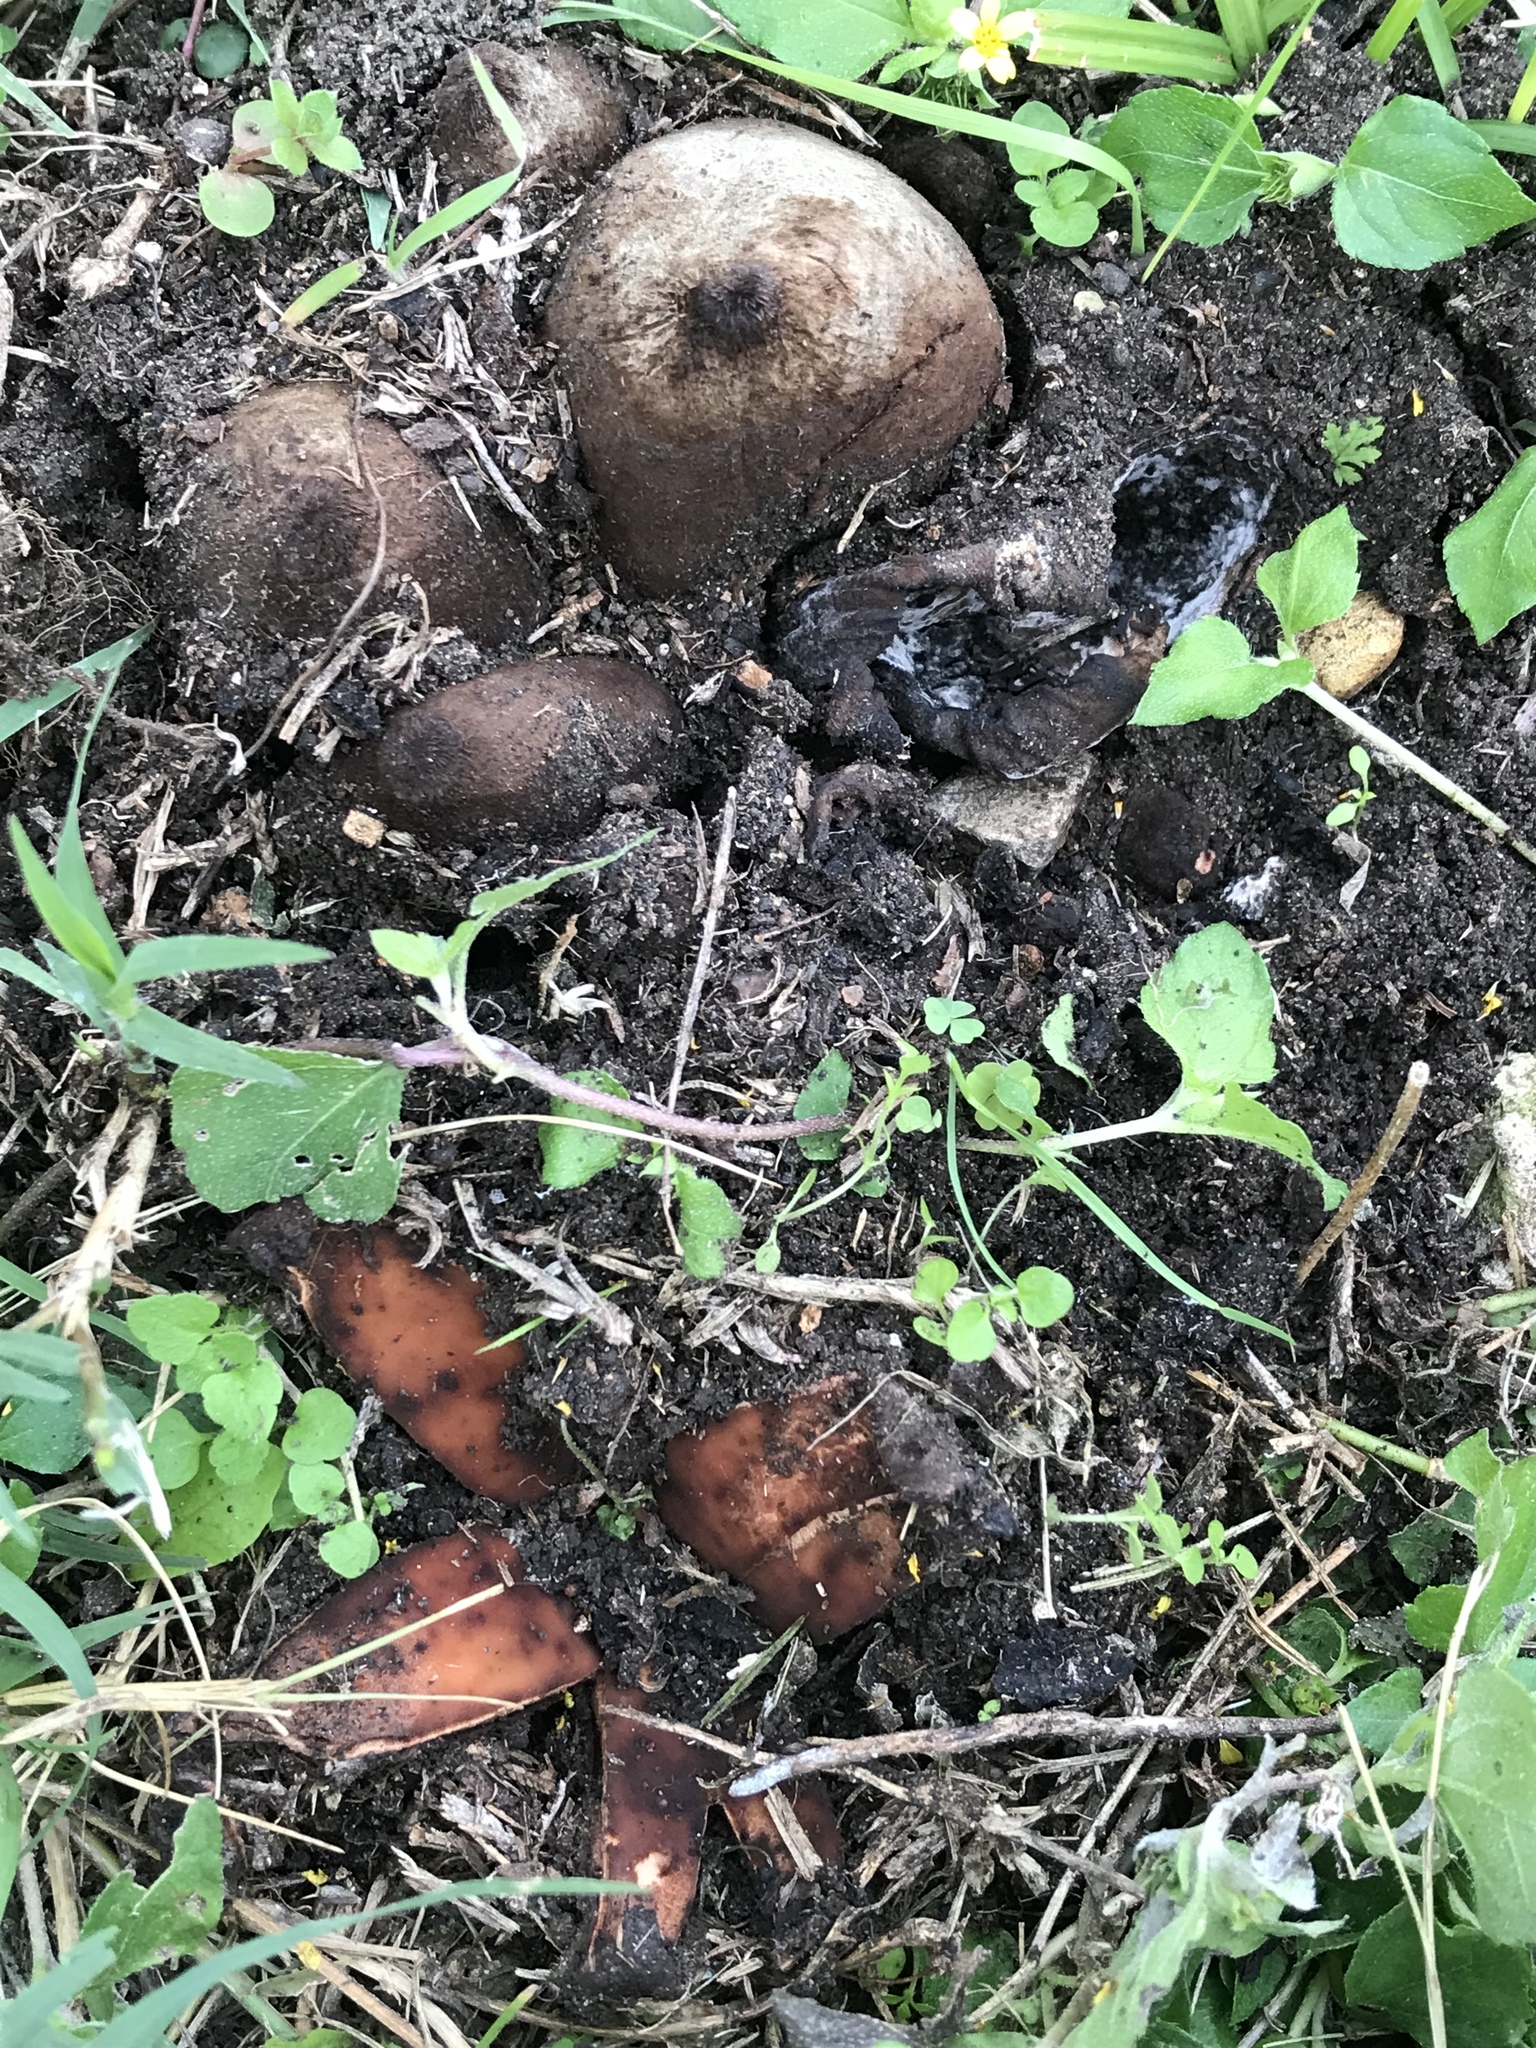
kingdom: Fungi
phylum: Ascomycota
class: Pezizomycetes
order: Pezizales
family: Chorioactidaceae
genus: Chorioactis
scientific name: Chorioactis geaster
